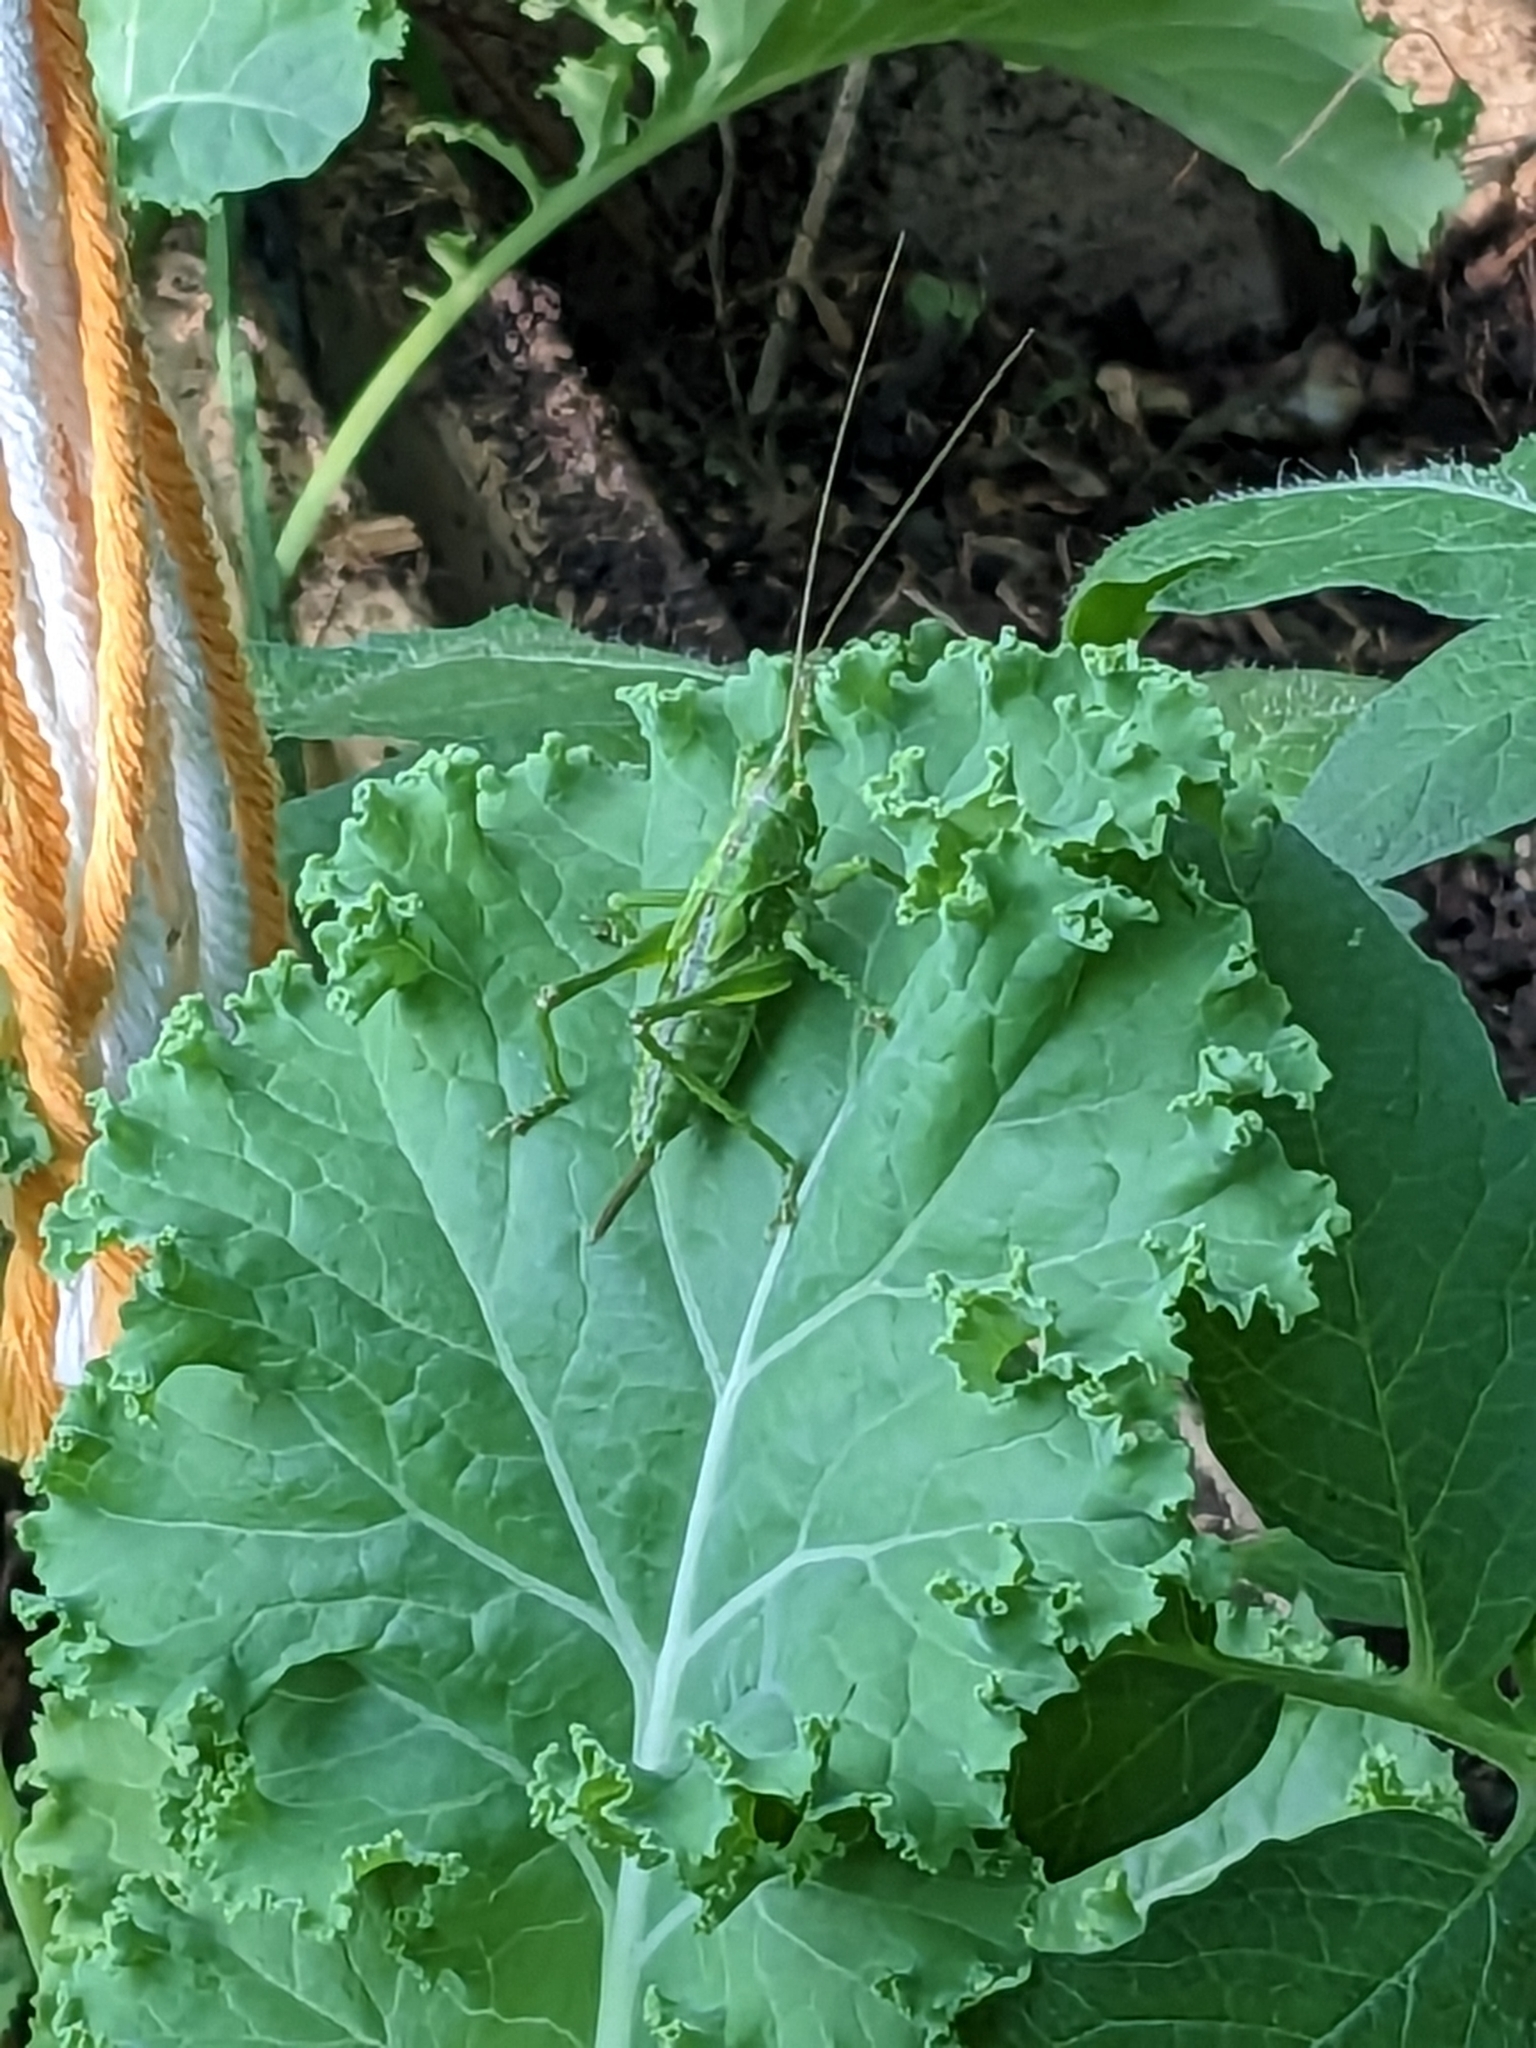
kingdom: Animalia
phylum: Arthropoda
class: Insecta
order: Orthoptera
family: Tettigoniidae
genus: Tettigonia
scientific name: Tettigonia viridissima
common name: Great green bush-cricket
